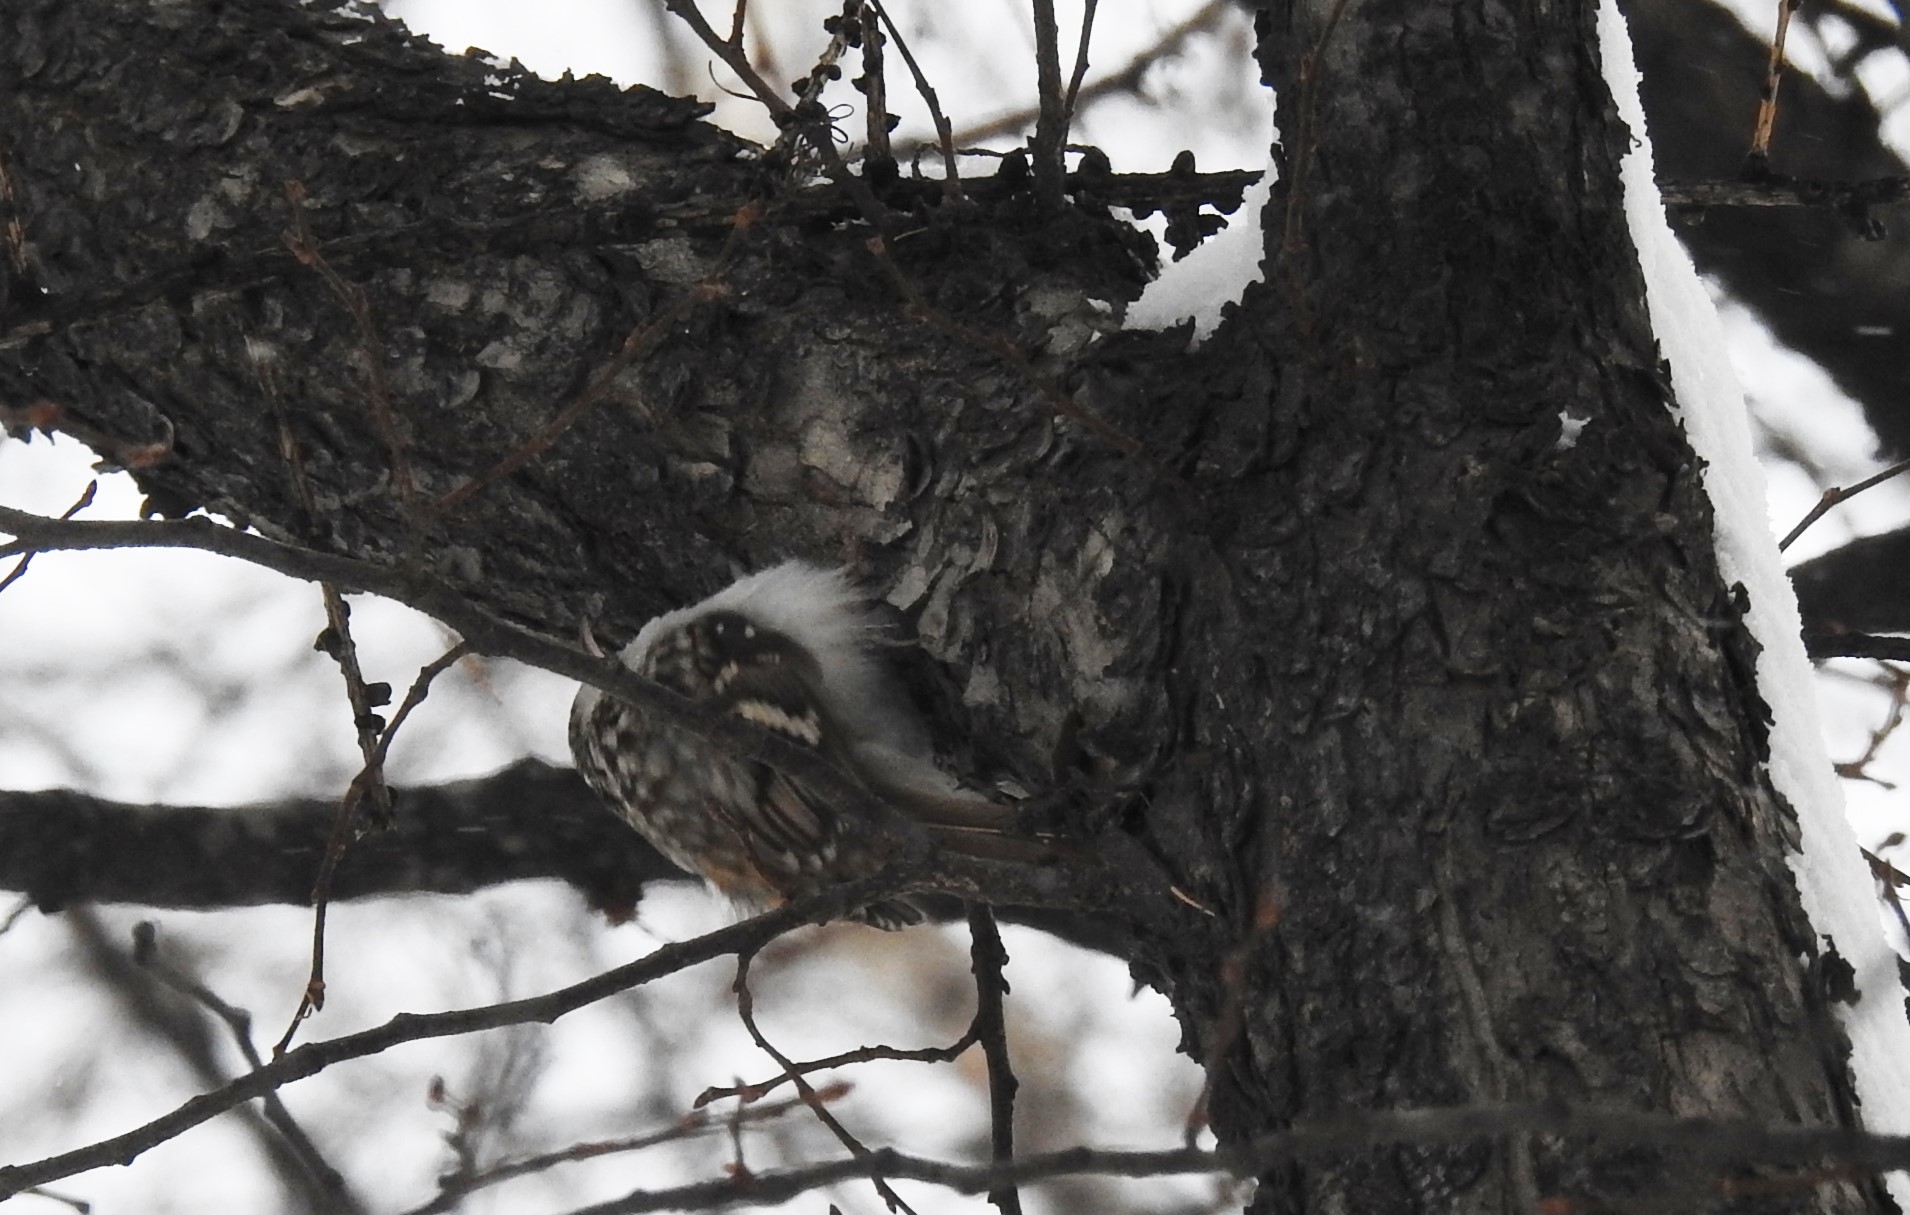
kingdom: Animalia
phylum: Chordata
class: Aves
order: Passeriformes
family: Certhiidae
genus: Certhia
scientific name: Certhia familiaris
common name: Eurasian treecreeper
